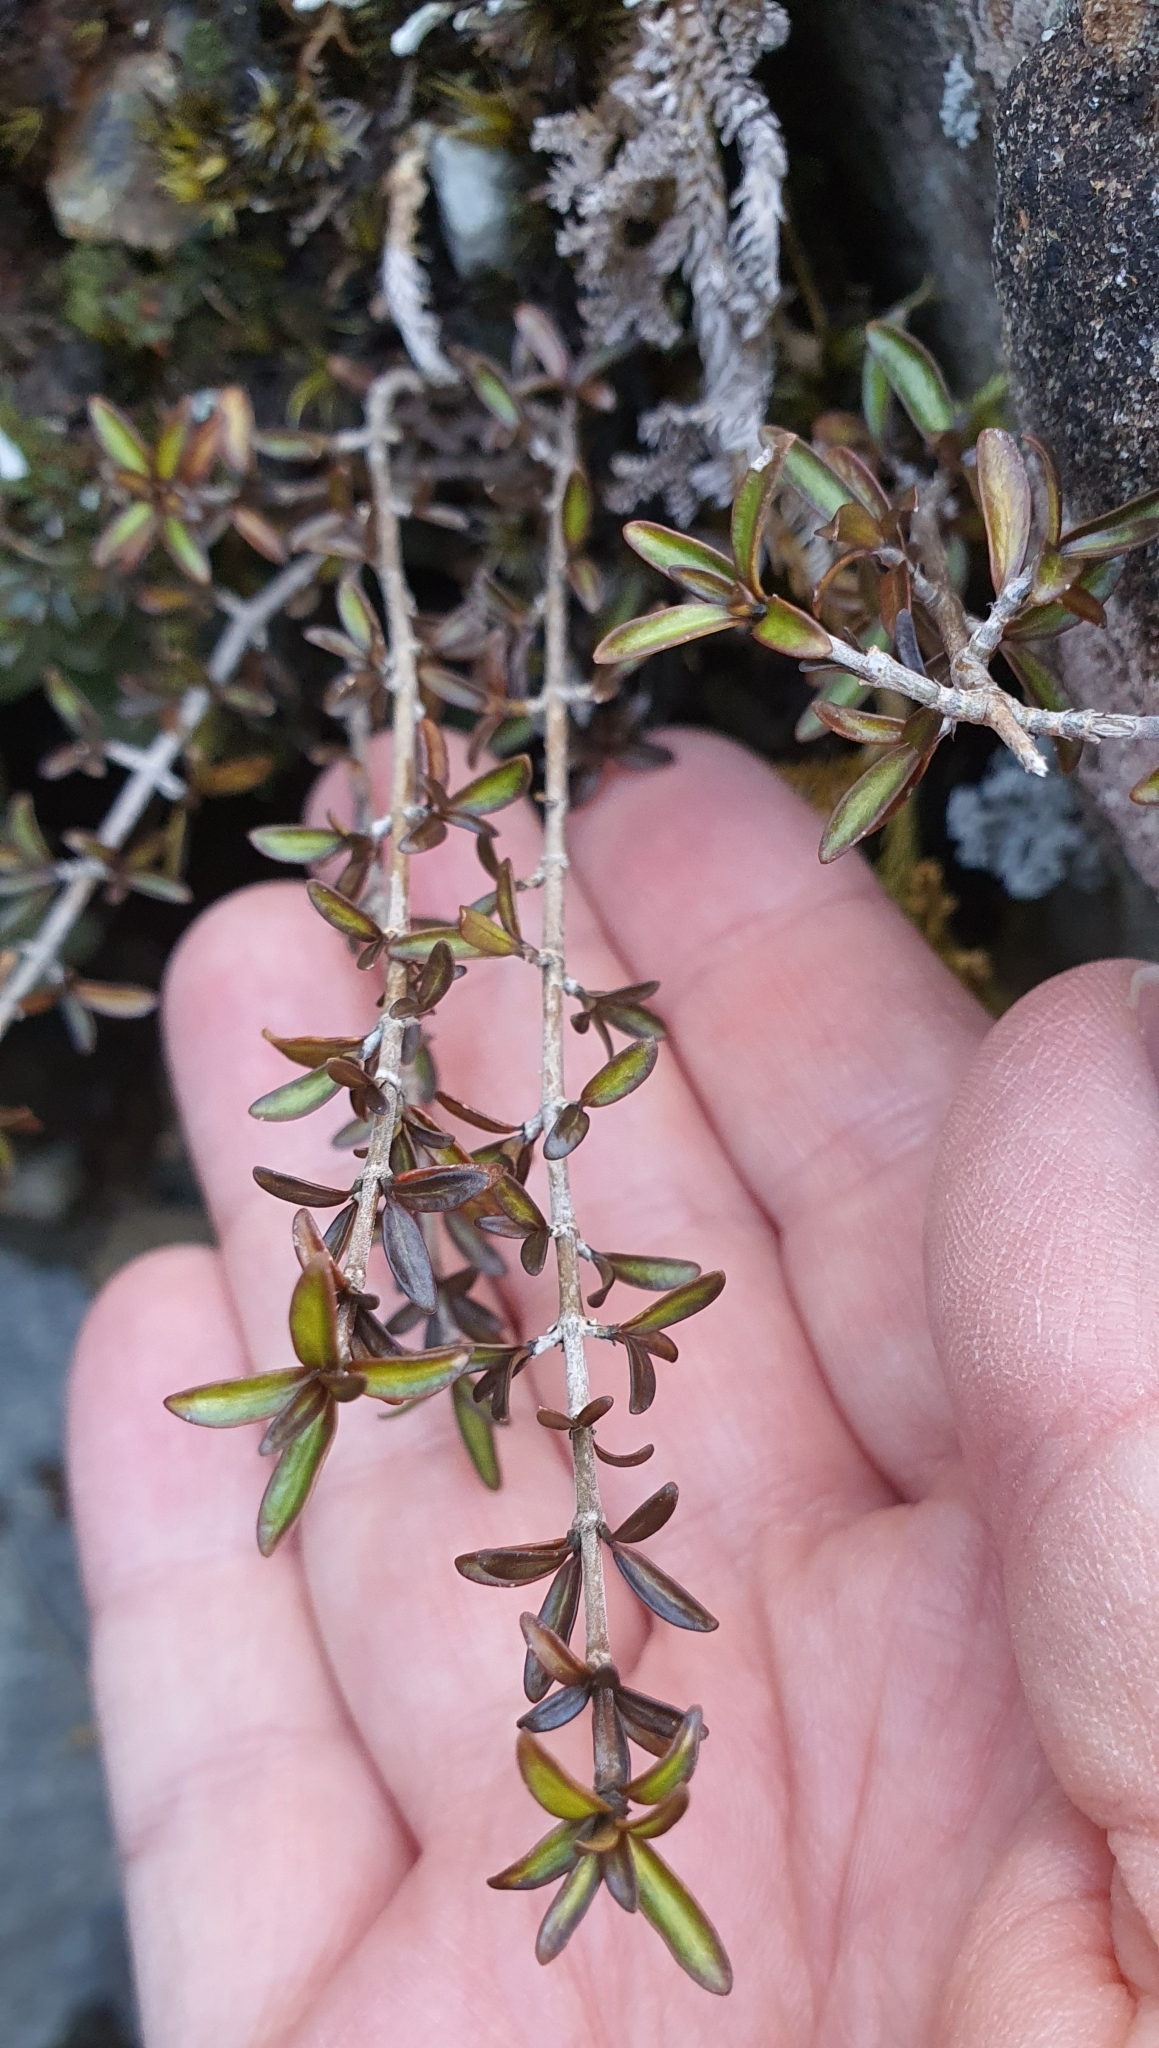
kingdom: Plantae
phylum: Tracheophyta
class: Magnoliopsida
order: Gentianales
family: Rubiaceae
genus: Coprosma
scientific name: Coprosma cheesemanii
